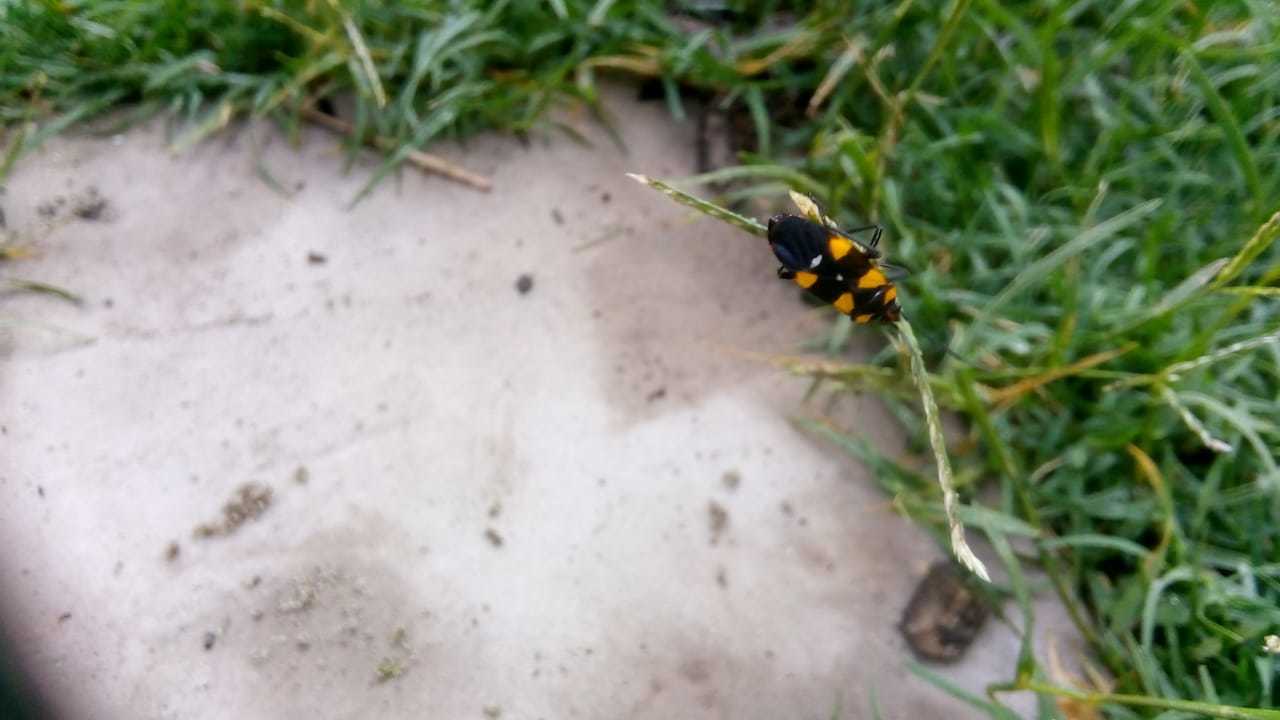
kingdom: Animalia
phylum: Arthropoda
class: Insecta
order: Hemiptera
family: Lygaeidae
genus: Oncopeltus
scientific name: Oncopeltus famelicus
